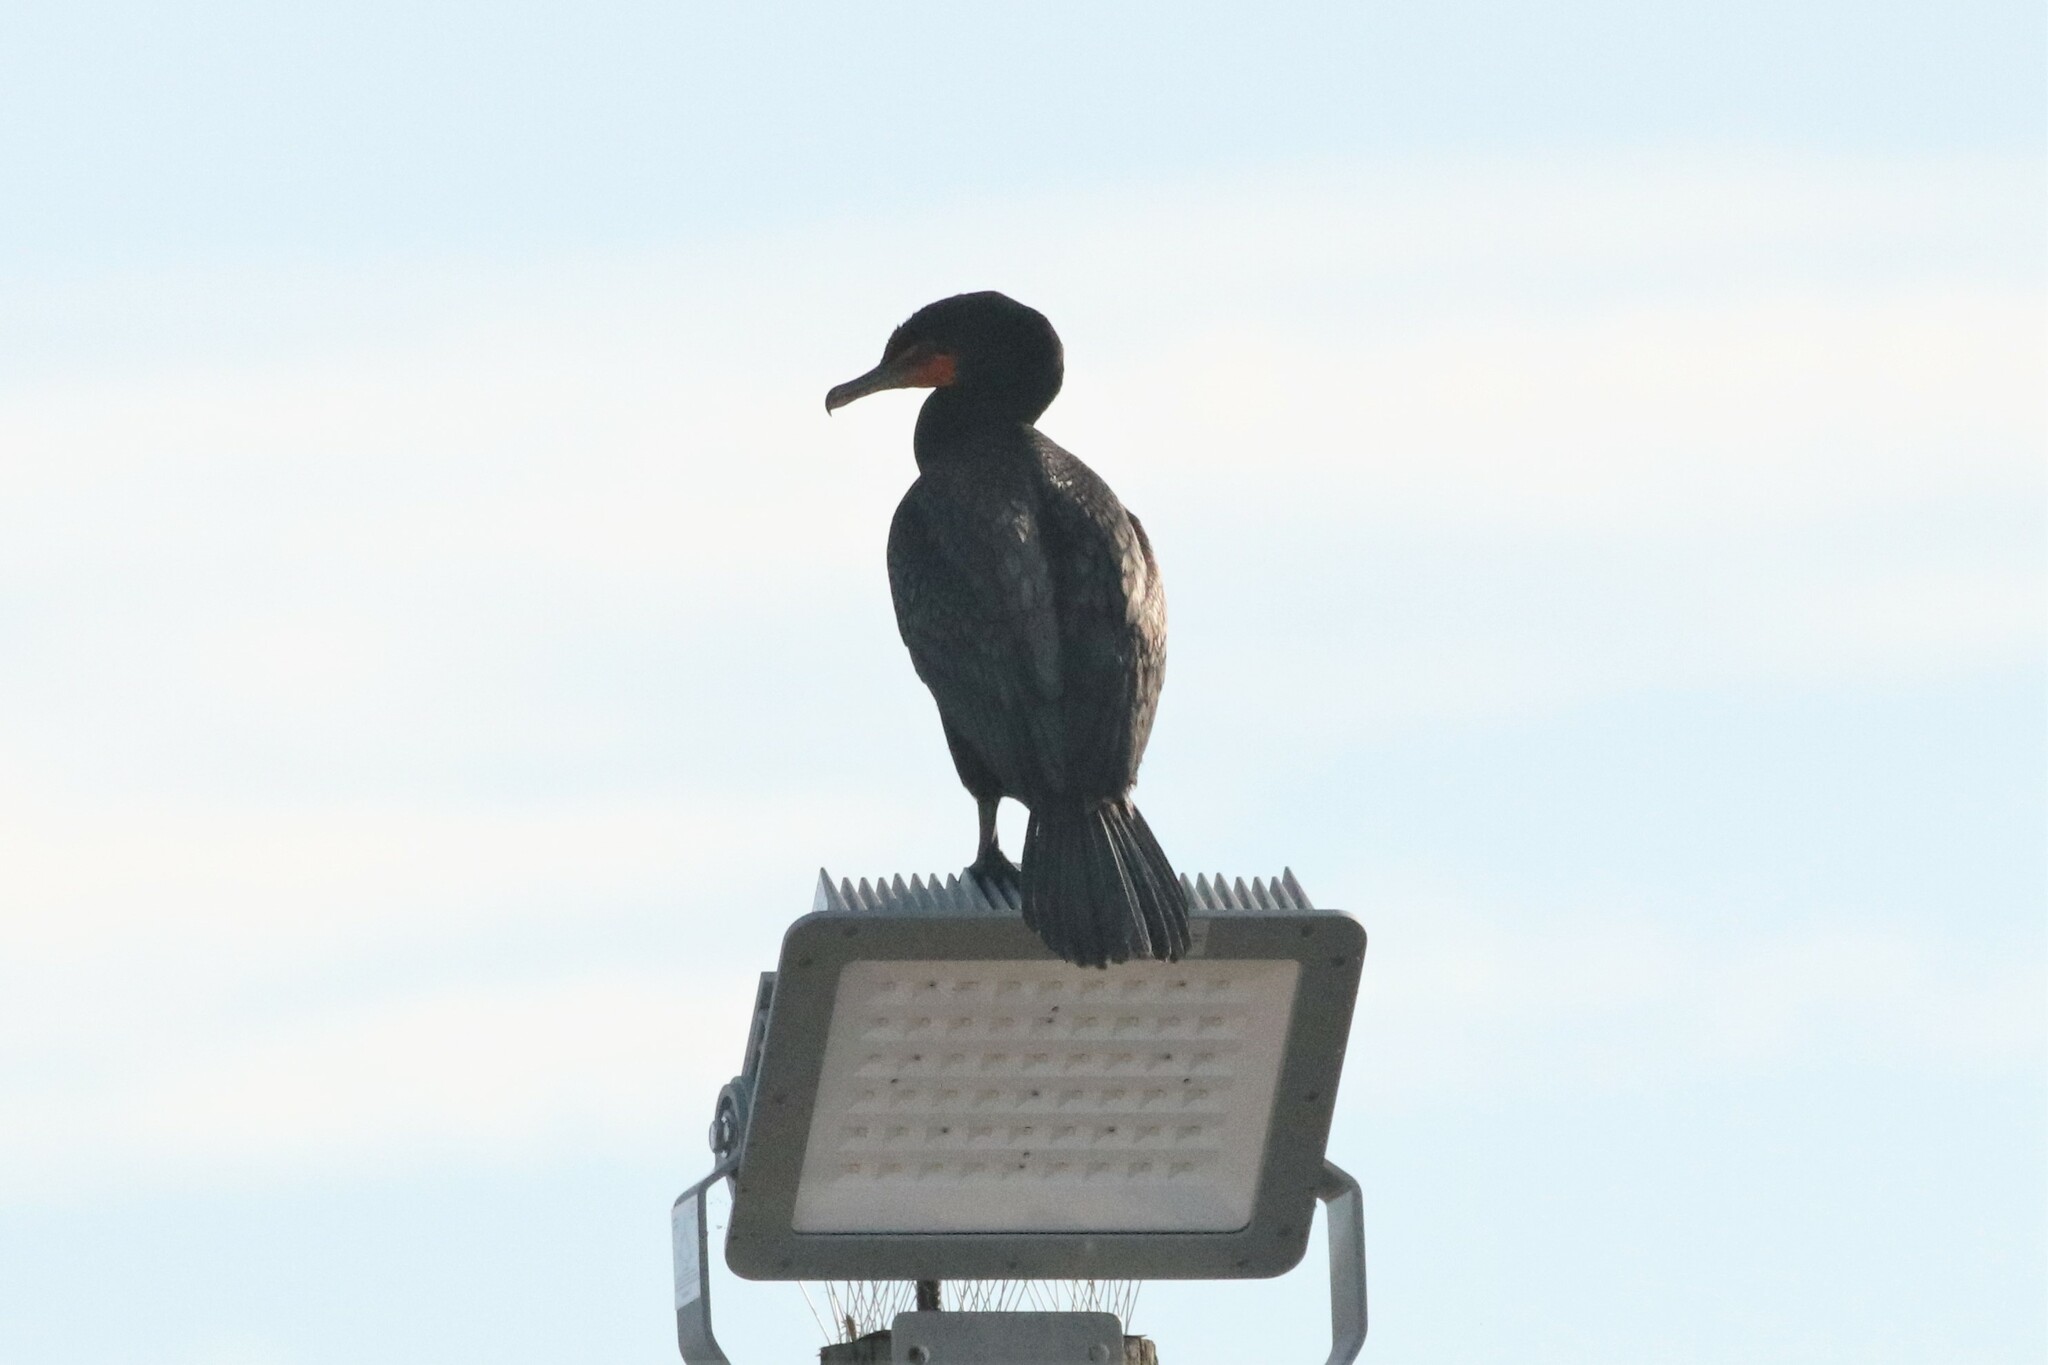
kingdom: Animalia
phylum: Chordata
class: Aves
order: Suliformes
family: Phalacrocoracidae
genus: Phalacrocorax
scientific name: Phalacrocorax auritus
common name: Double-crested cormorant
